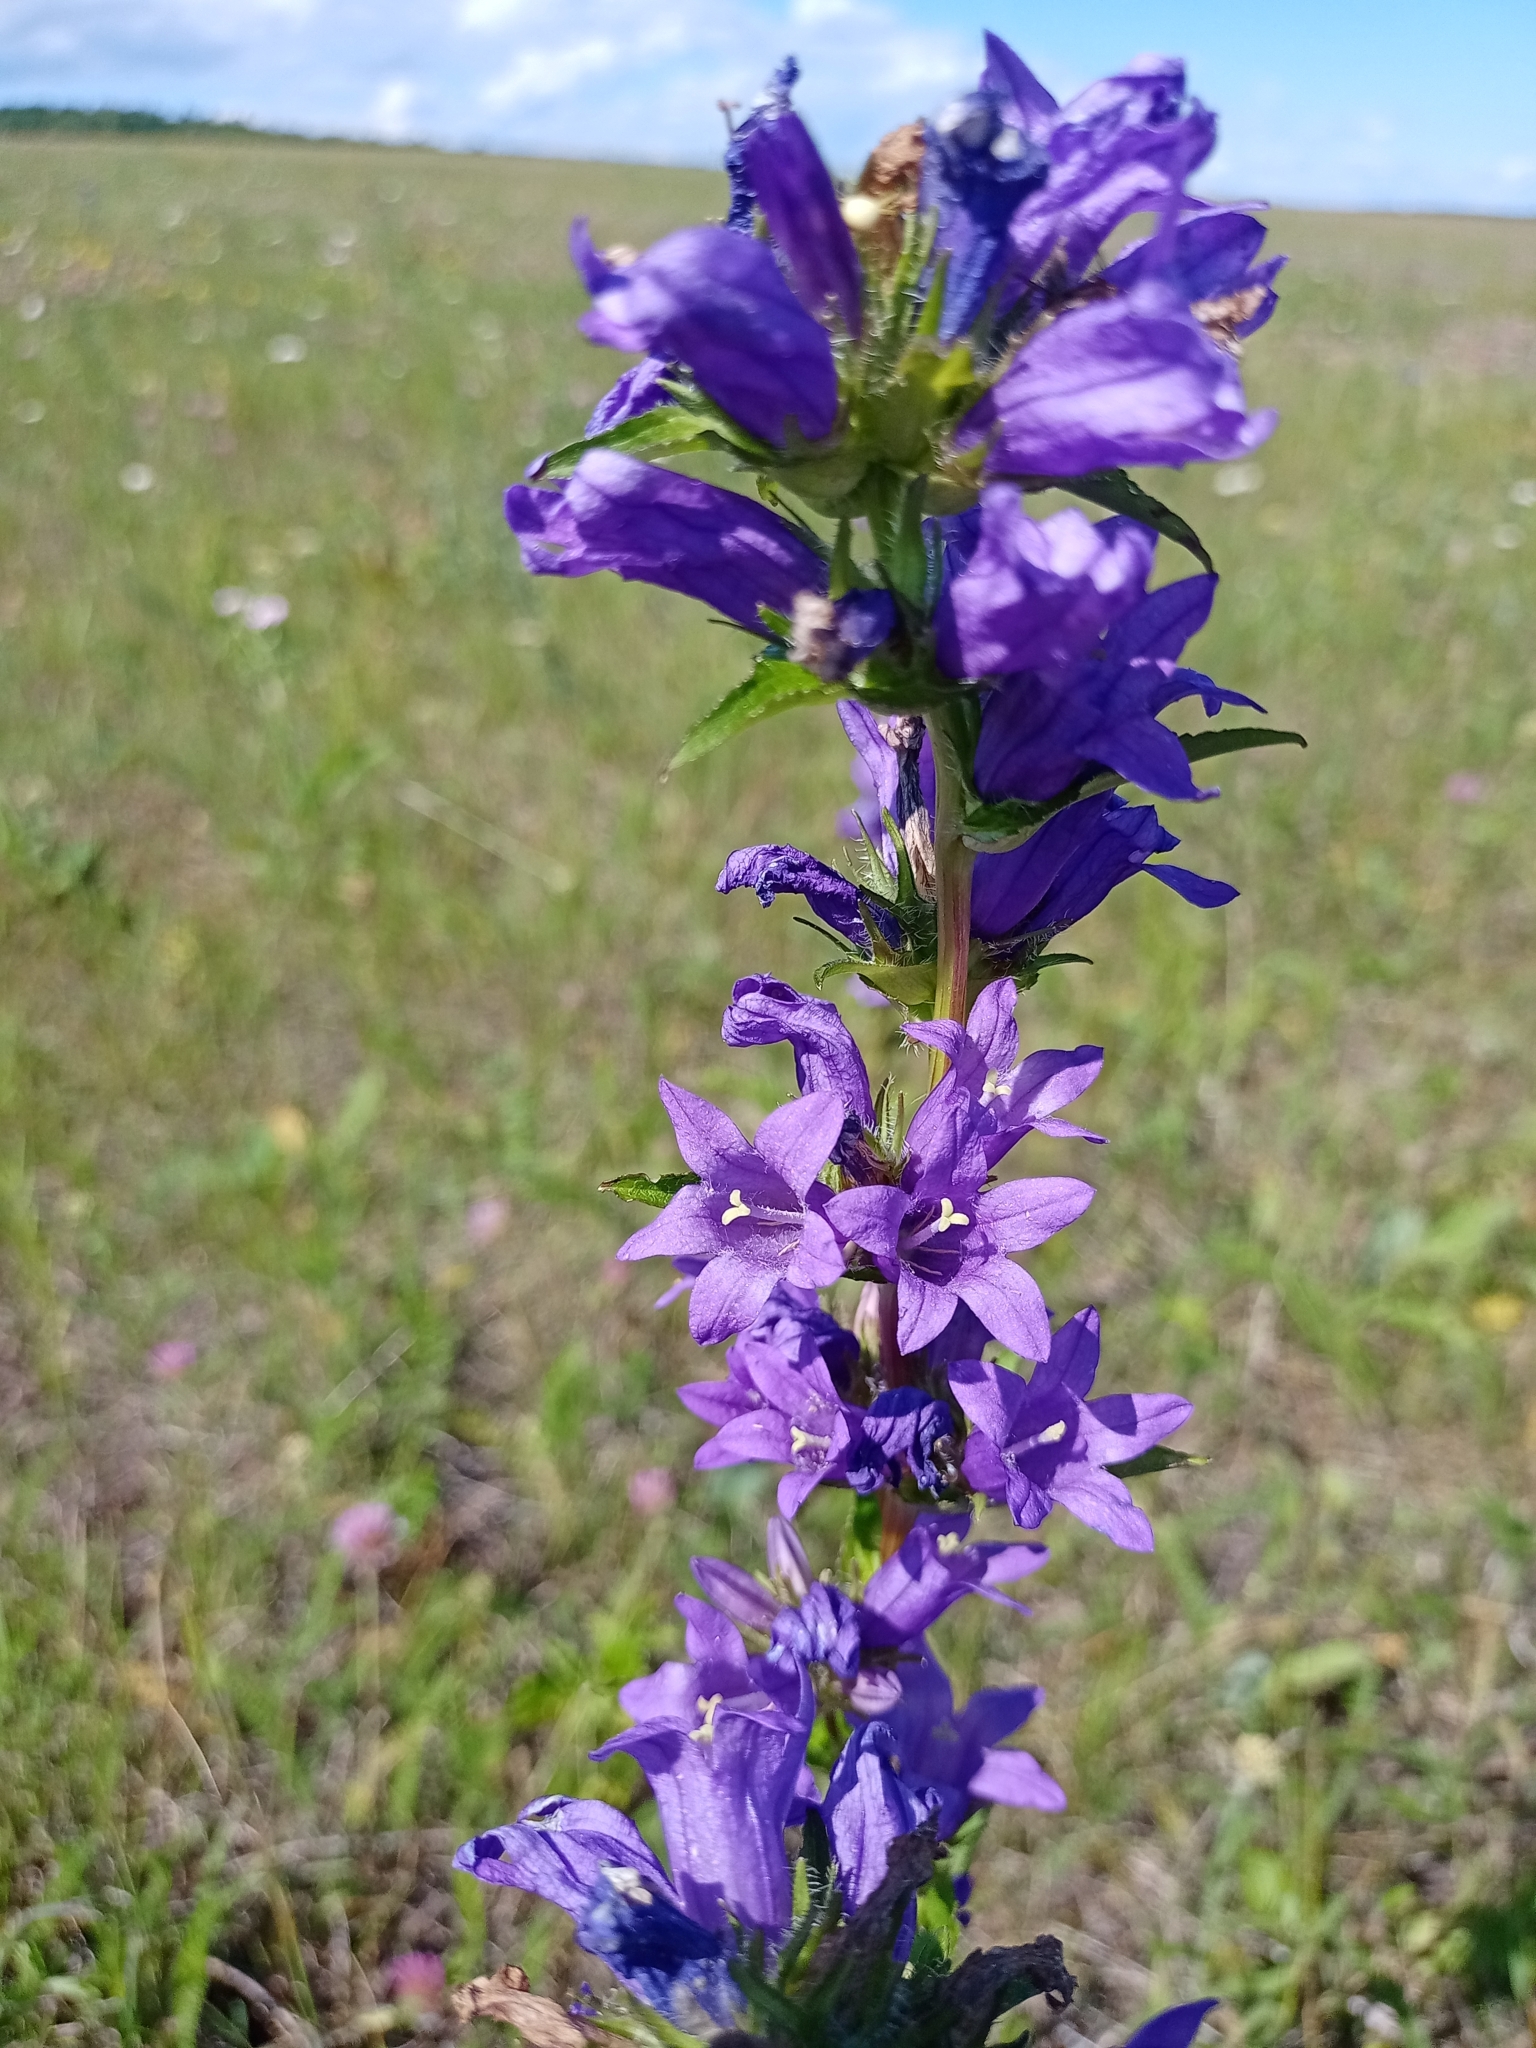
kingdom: Plantae
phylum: Tracheophyta
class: Magnoliopsida
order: Asterales
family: Campanulaceae
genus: Campanula
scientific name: Campanula glomerata
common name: Clustered bellflower
